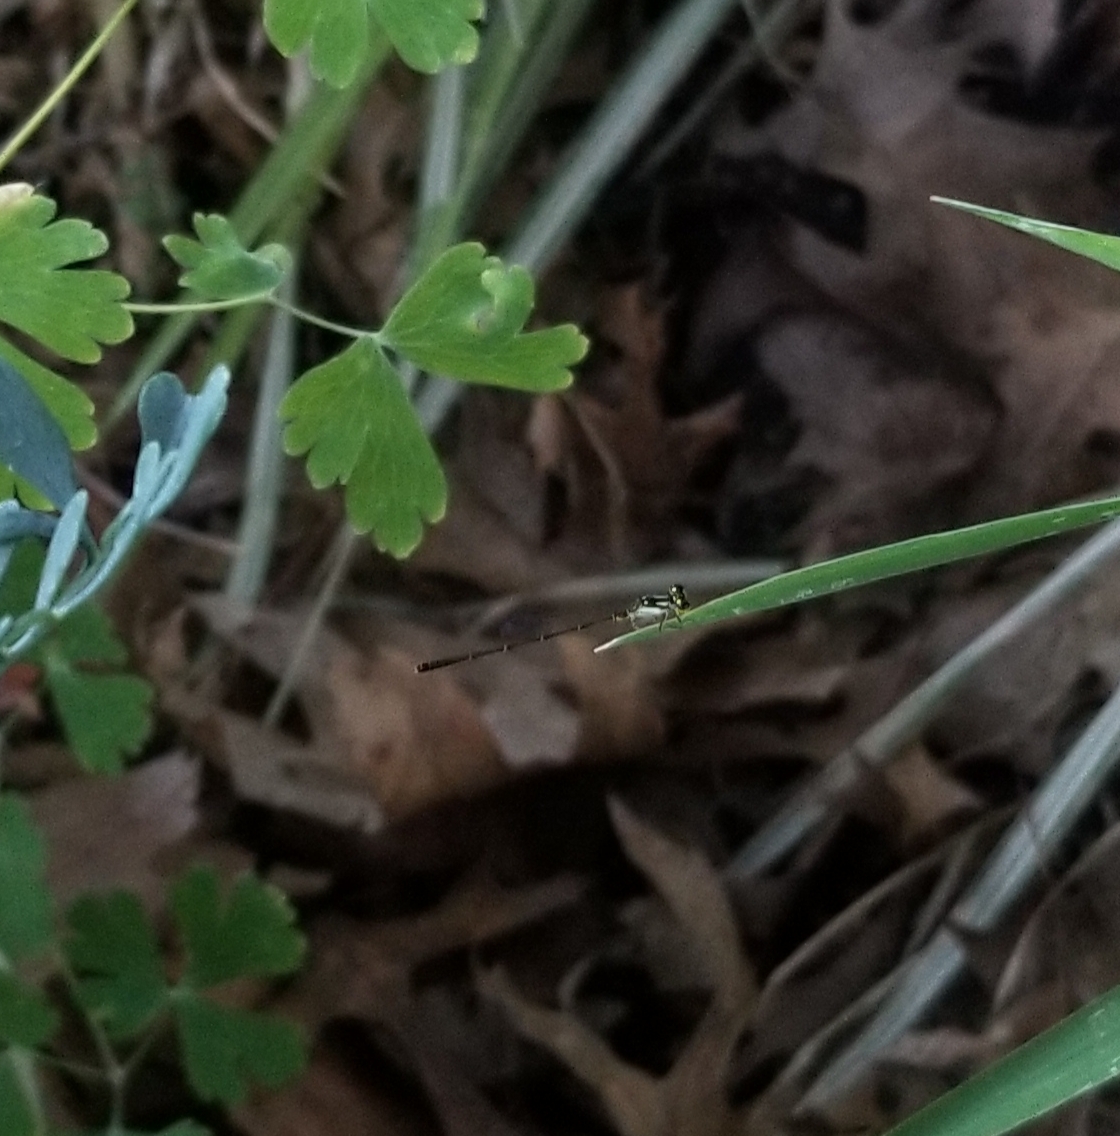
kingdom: Animalia
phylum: Arthropoda
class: Insecta
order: Odonata
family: Coenagrionidae
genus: Ischnura
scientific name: Ischnura posita
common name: Fragile forktail
